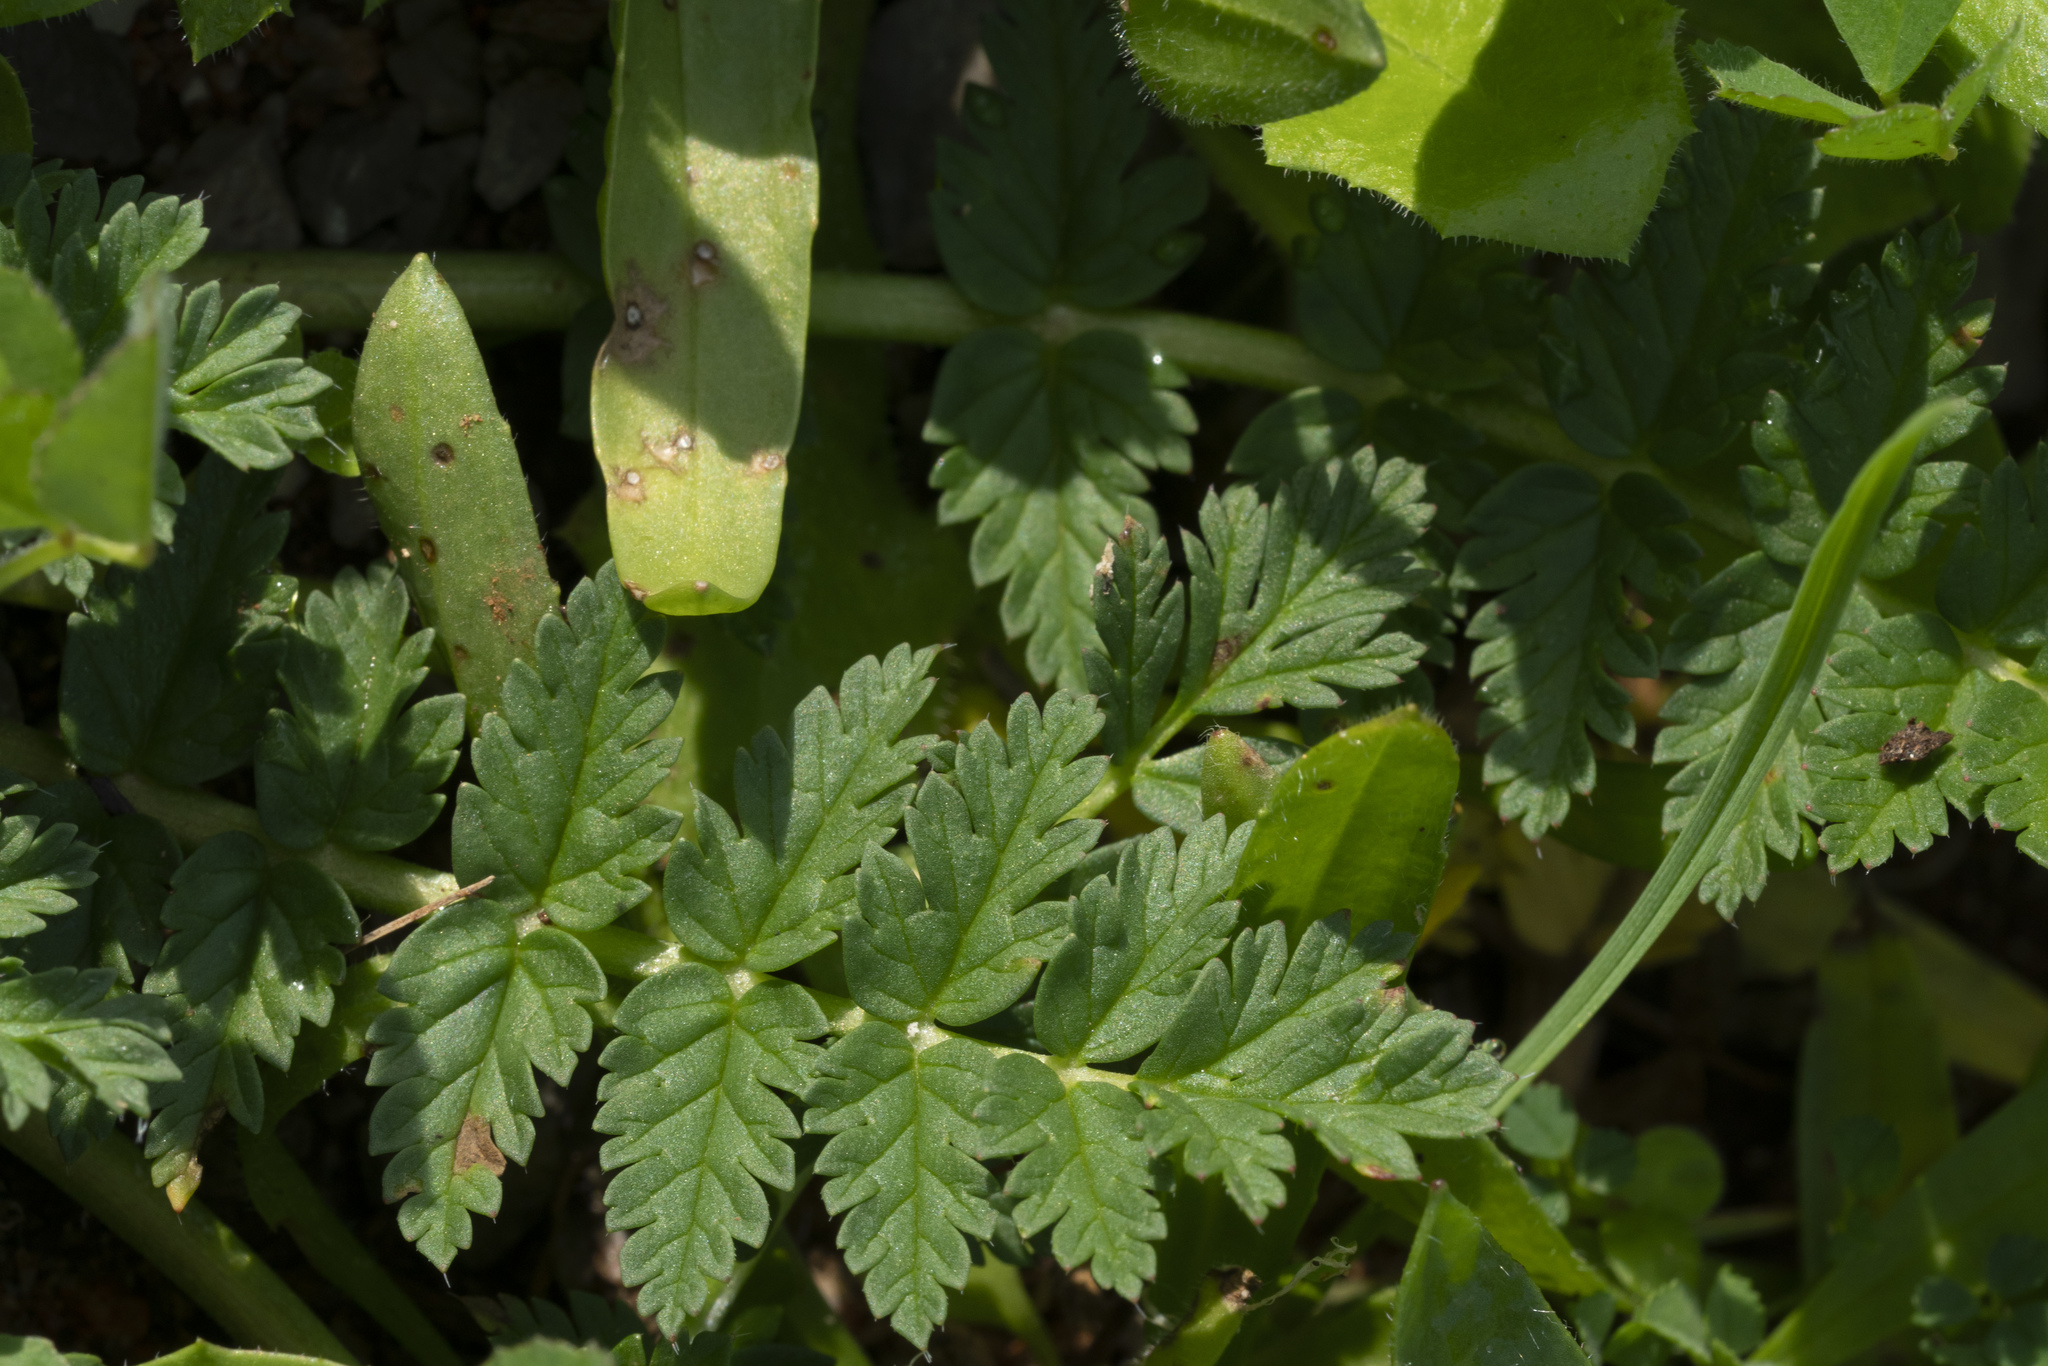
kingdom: Plantae
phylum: Tracheophyta
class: Magnoliopsida
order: Geraniales
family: Geraniaceae
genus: Erodium
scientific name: Erodium cicutarium
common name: Common stork's-bill
